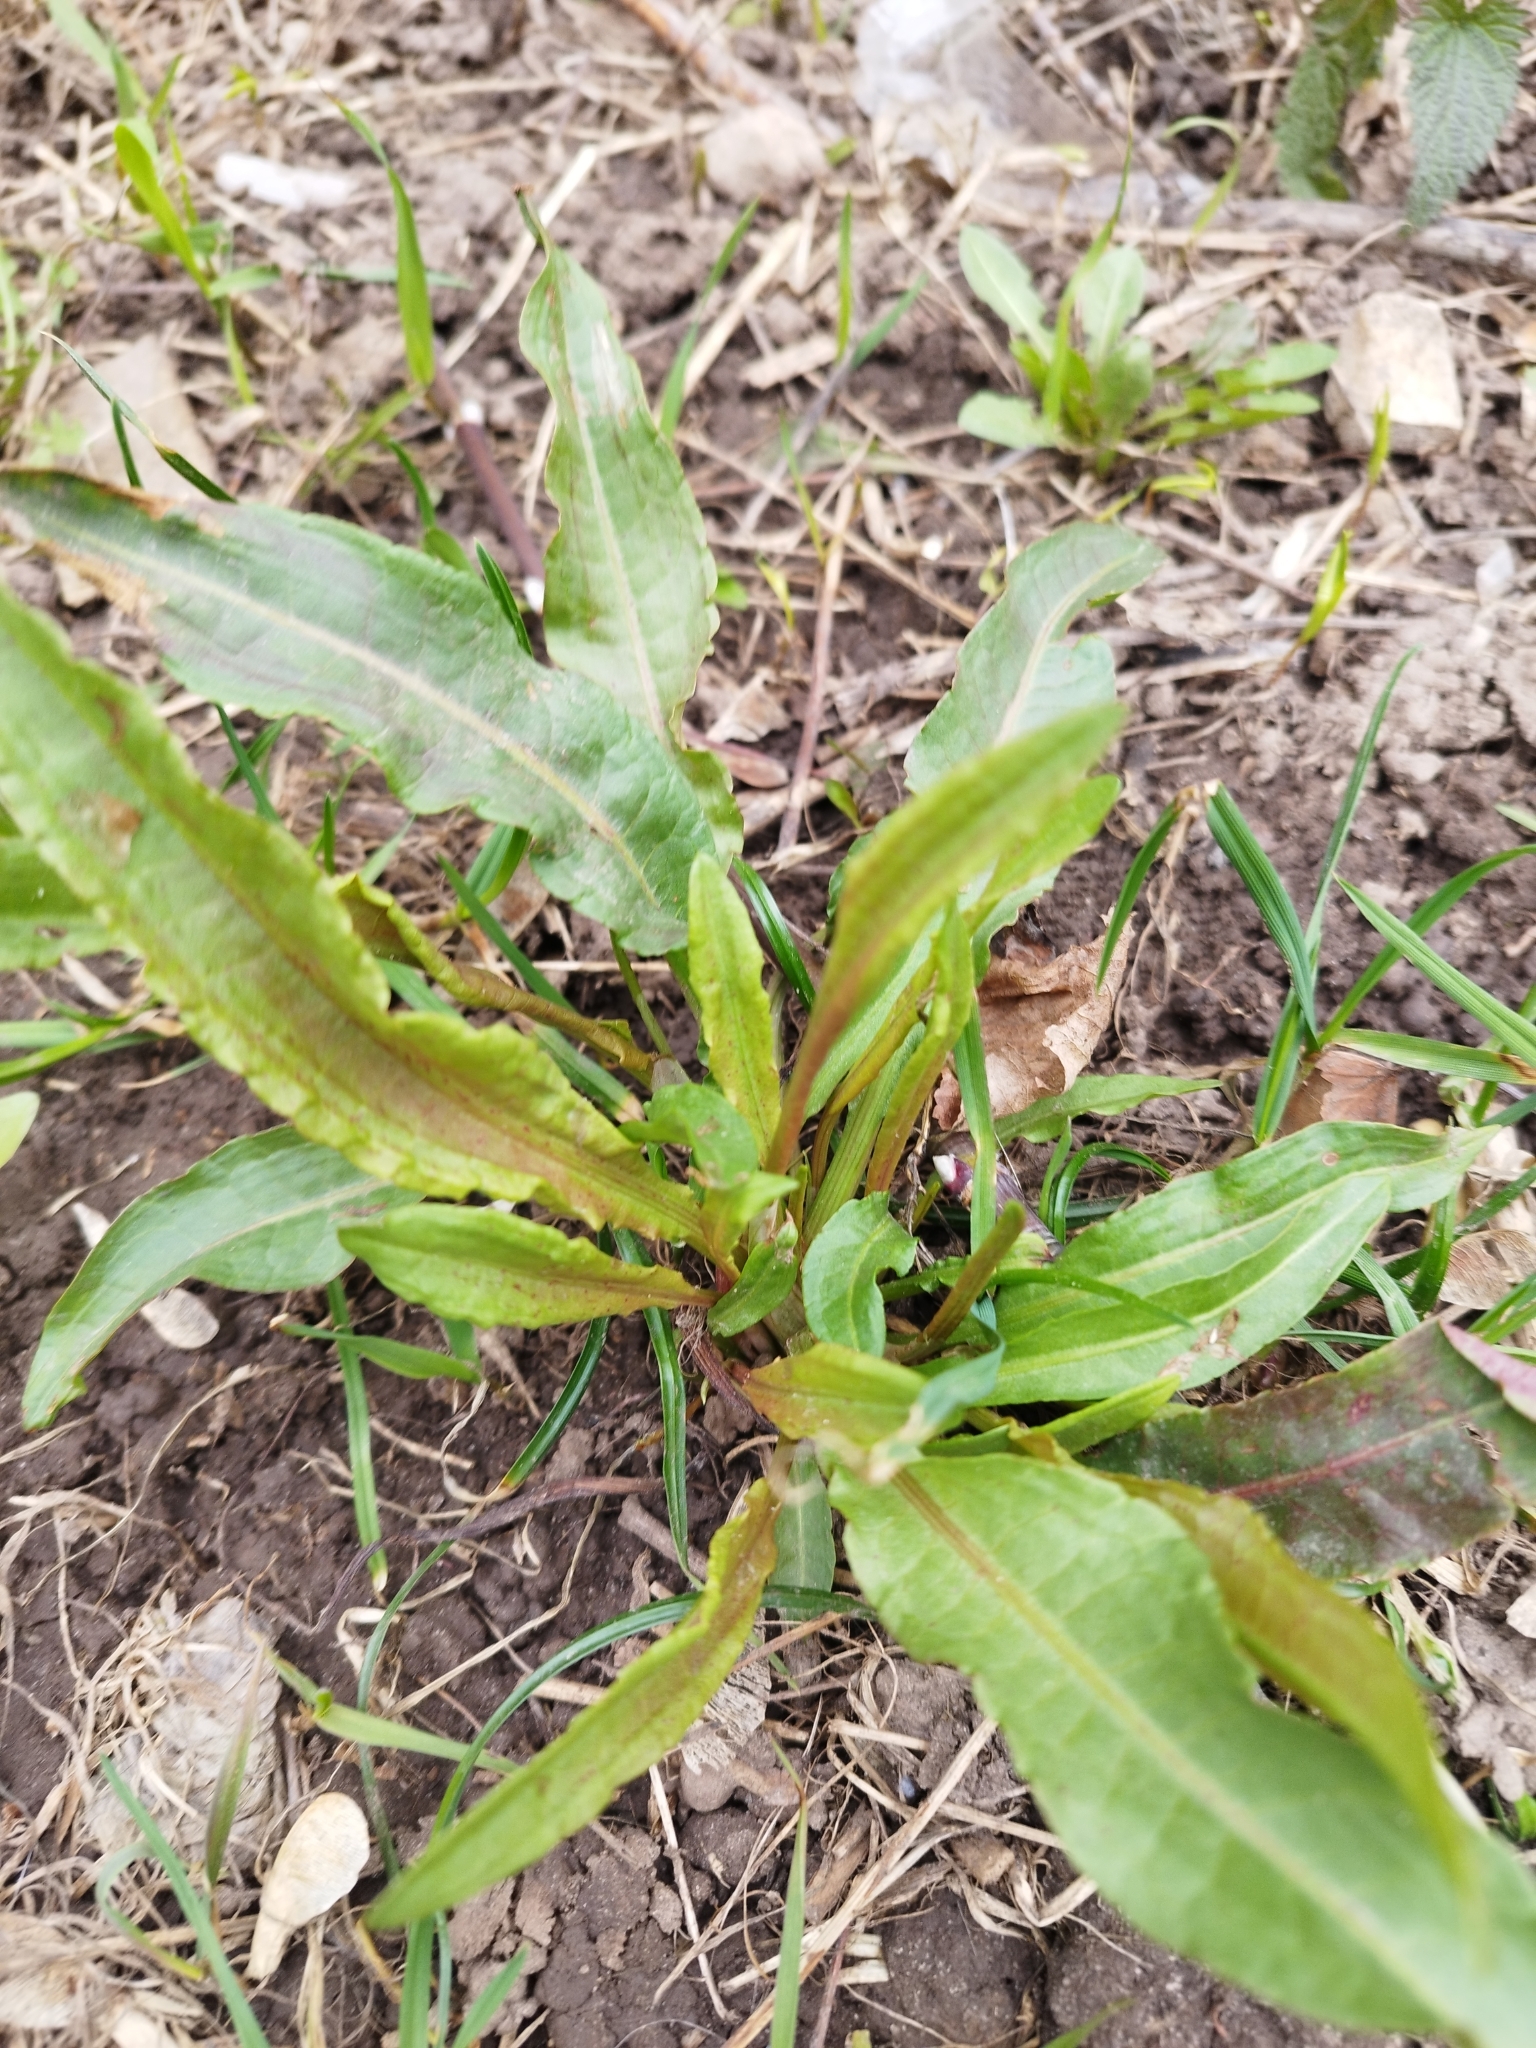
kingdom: Plantae
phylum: Tracheophyta
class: Magnoliopsida
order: Caryophyllales
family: Polygonaceae
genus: Rumex
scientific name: Rumex crispus
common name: Curled dock
